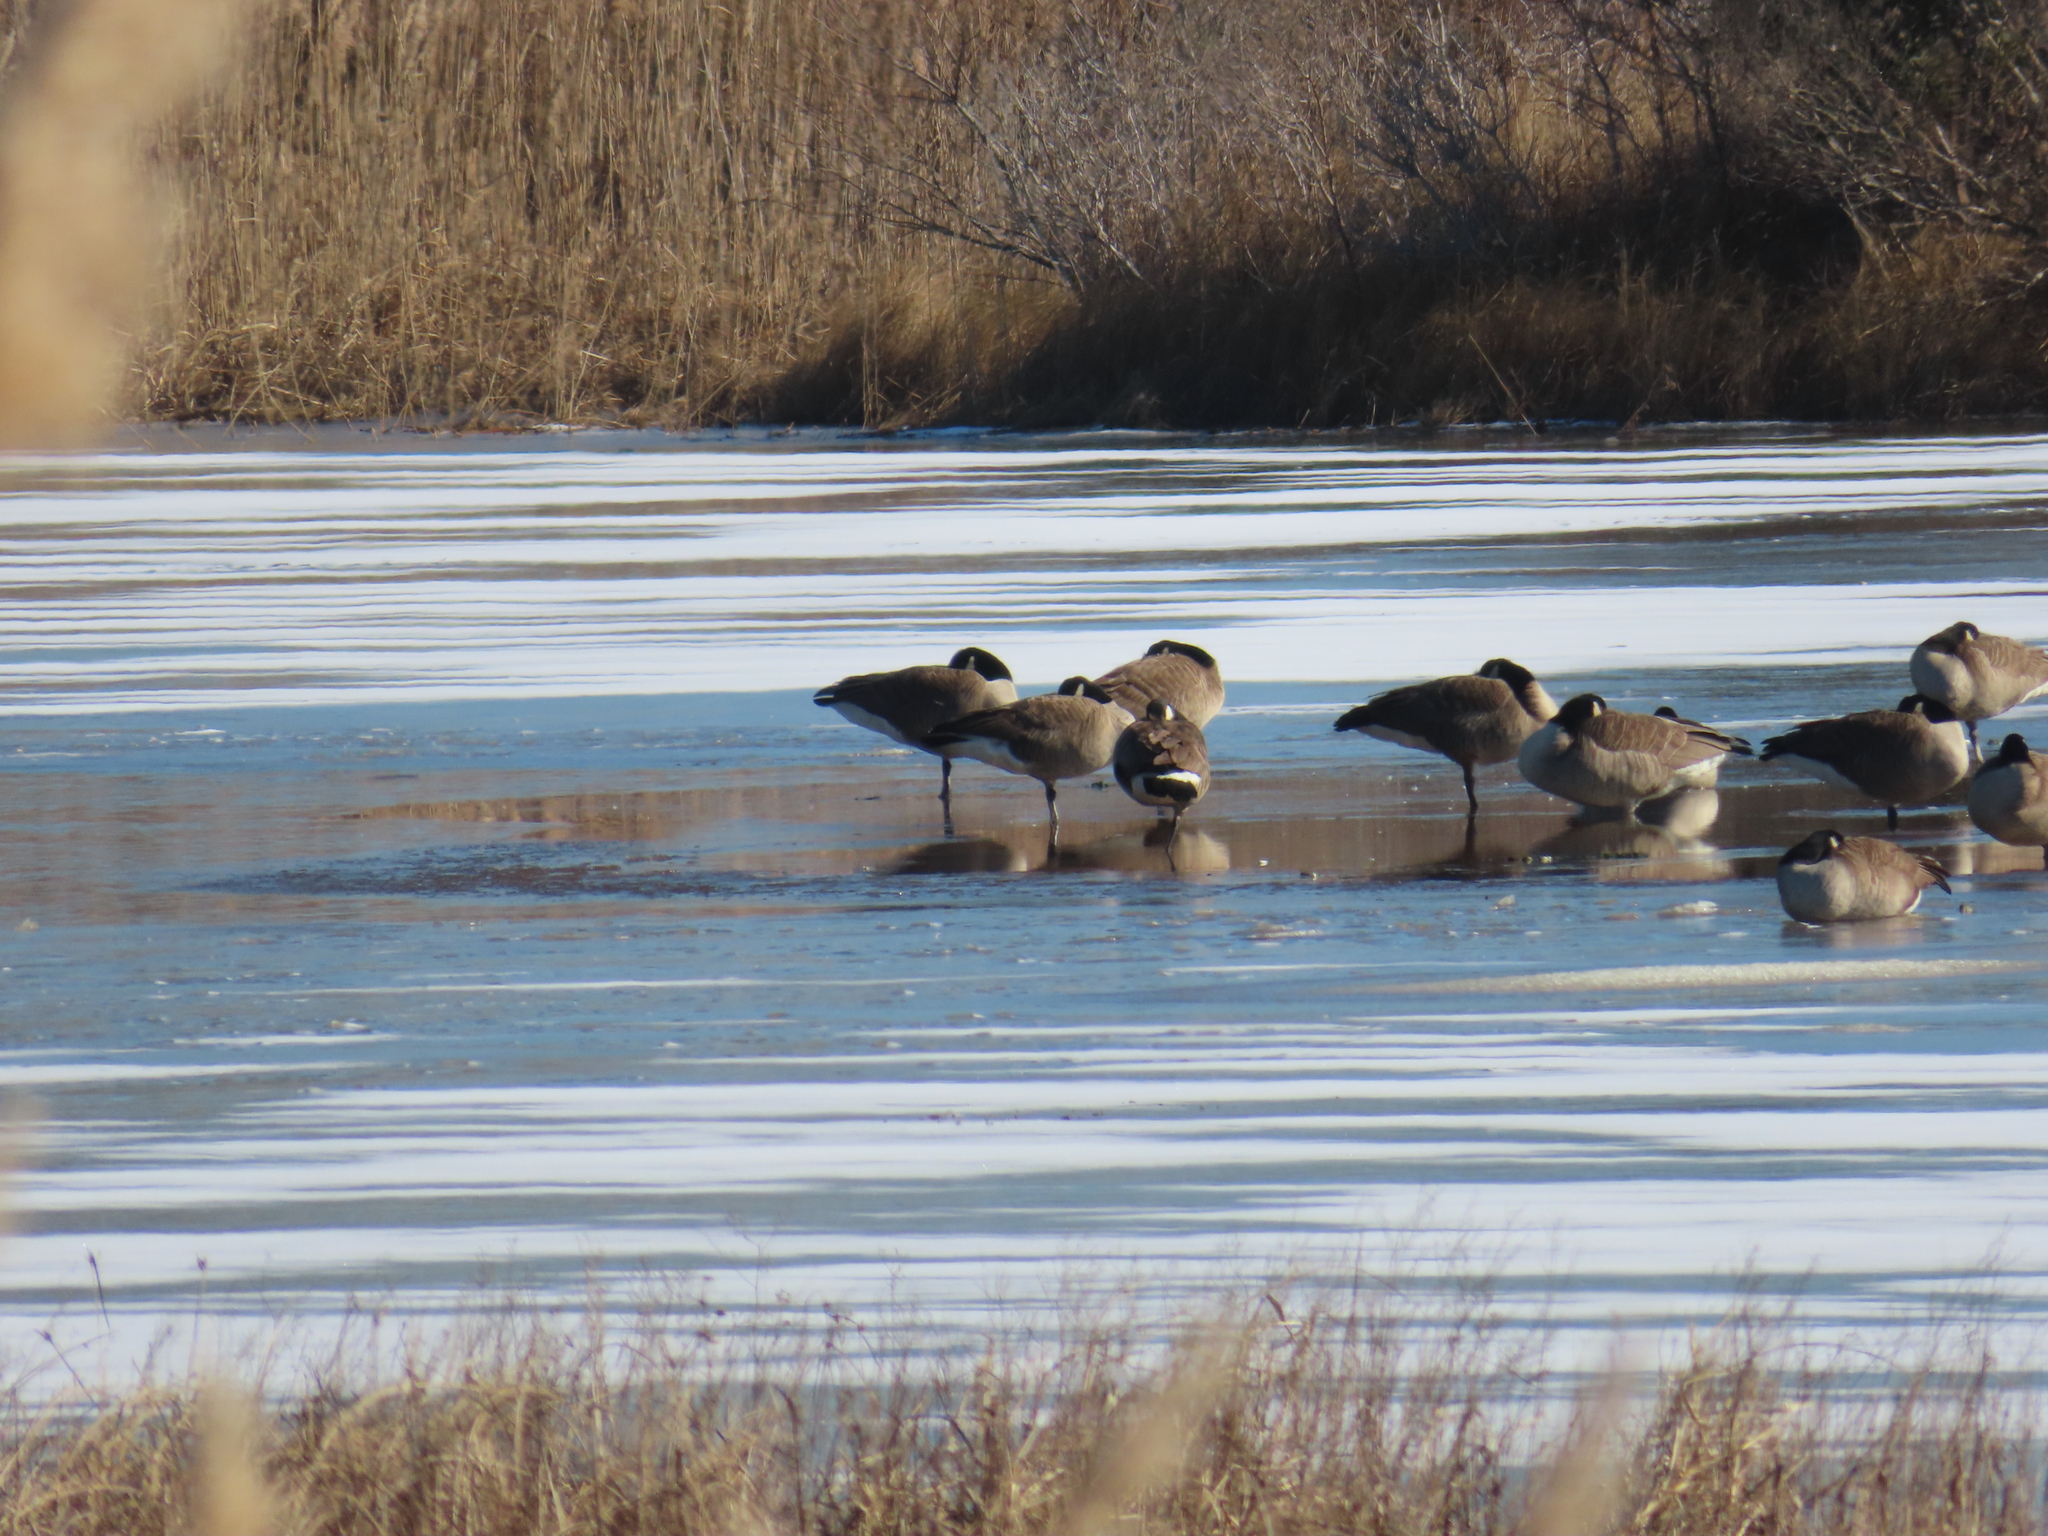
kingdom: Animalia
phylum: Chordata
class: Aves
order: Anseriformes
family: Anatidae
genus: Branta
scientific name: Branta canadensis
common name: Canada goose
